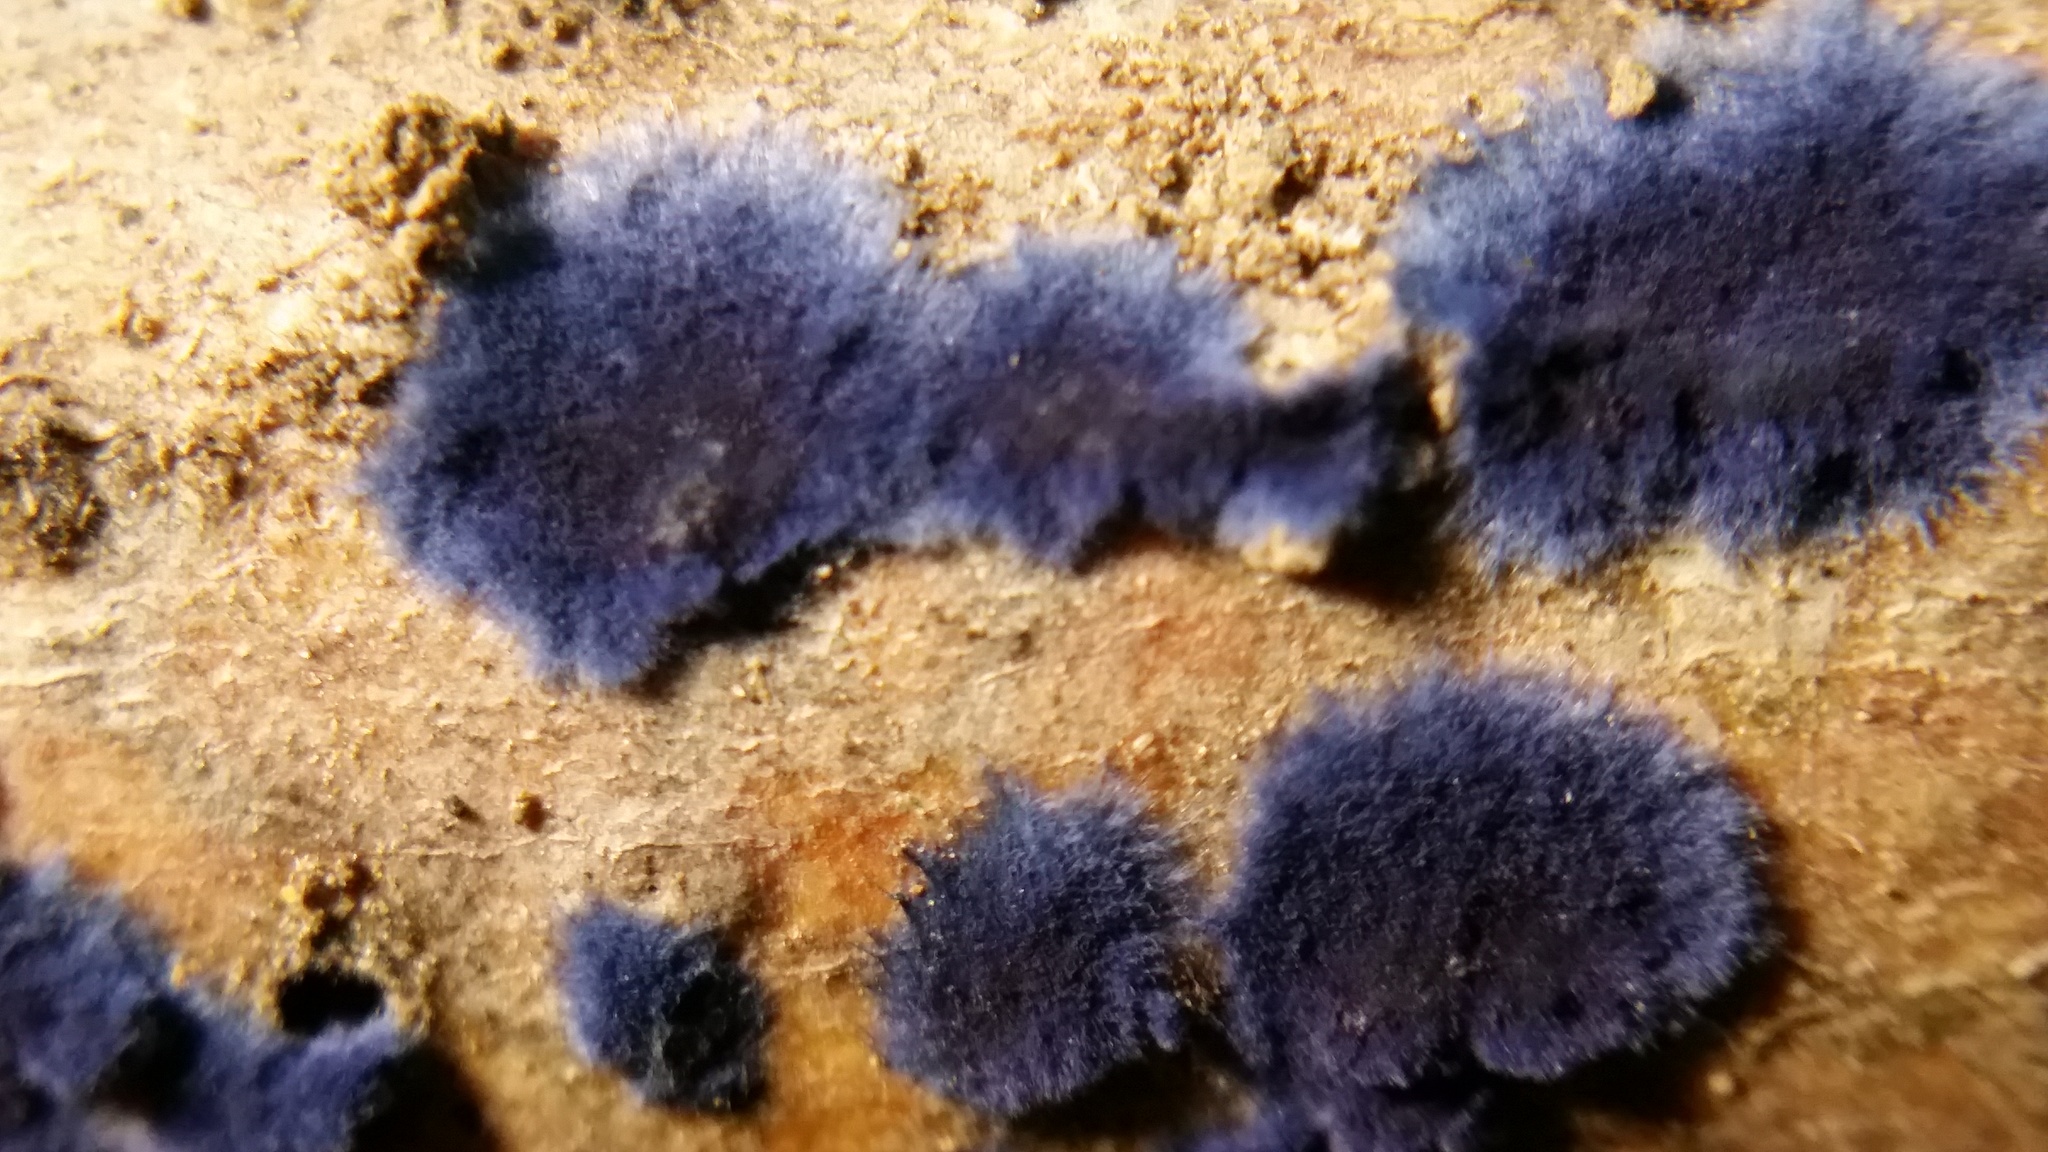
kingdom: Fungi
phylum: Basidiomycota
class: Agaricomycetes
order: Polyporales
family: Phanerochaetaceae
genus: Terana
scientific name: Terana coerulea
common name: Cobalt crust
